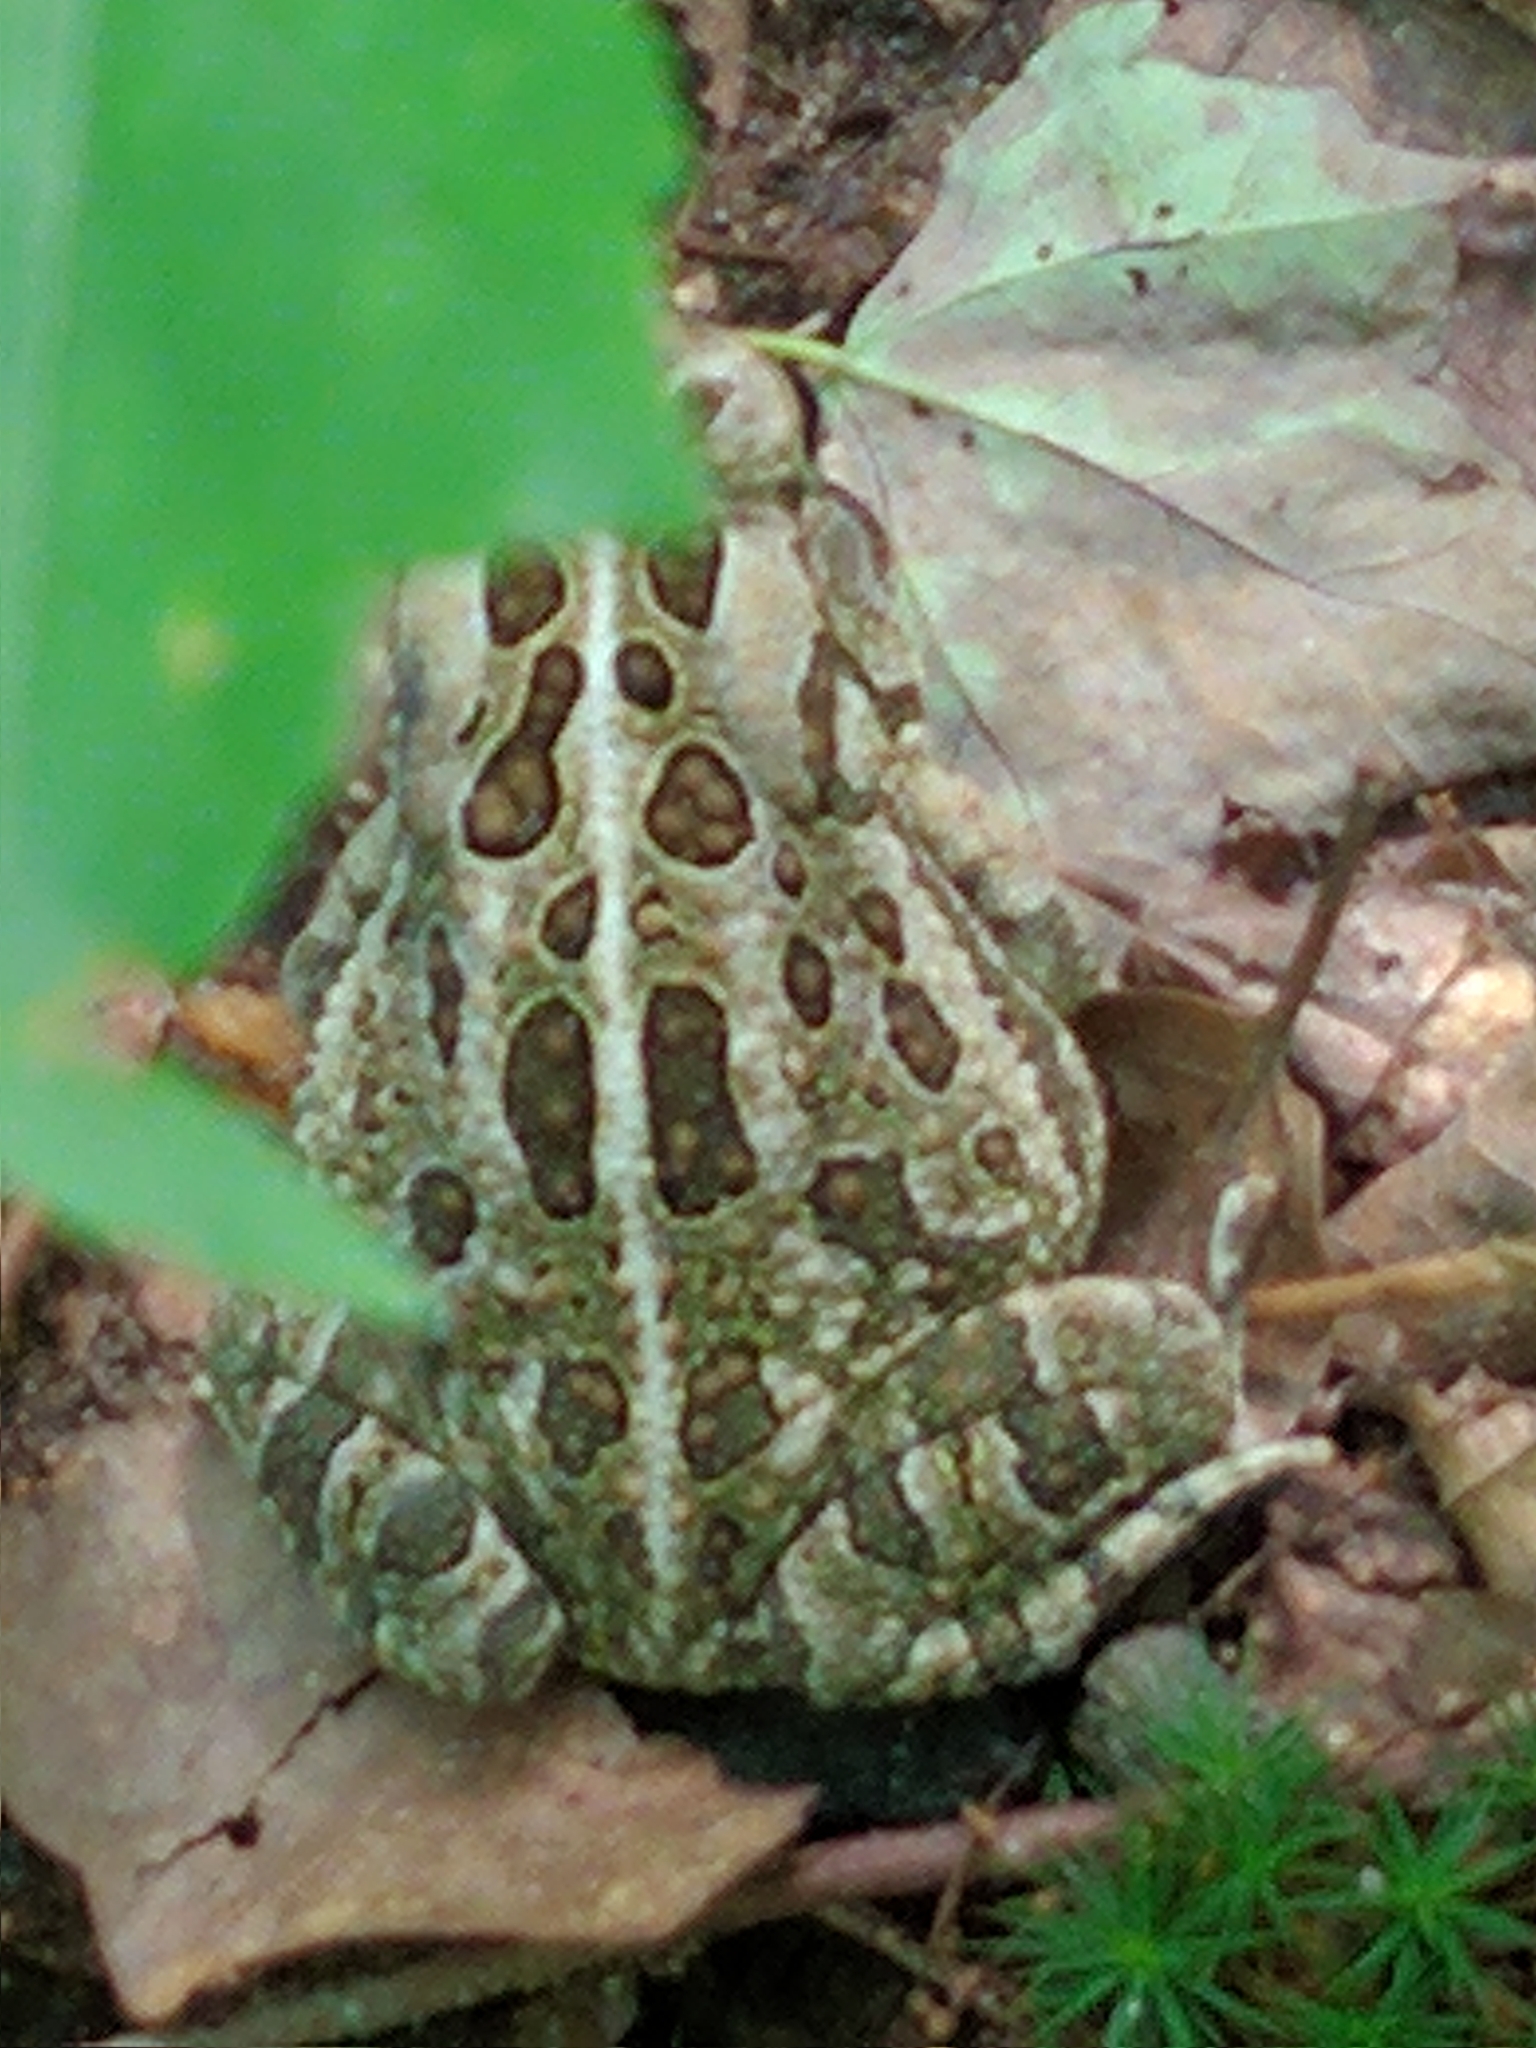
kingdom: Animalia
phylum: Chordata
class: Amphibia
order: Anura
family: Bufonidae
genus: Anaxyrus
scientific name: Anaxyrus fowleri
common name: Fowler's toad
